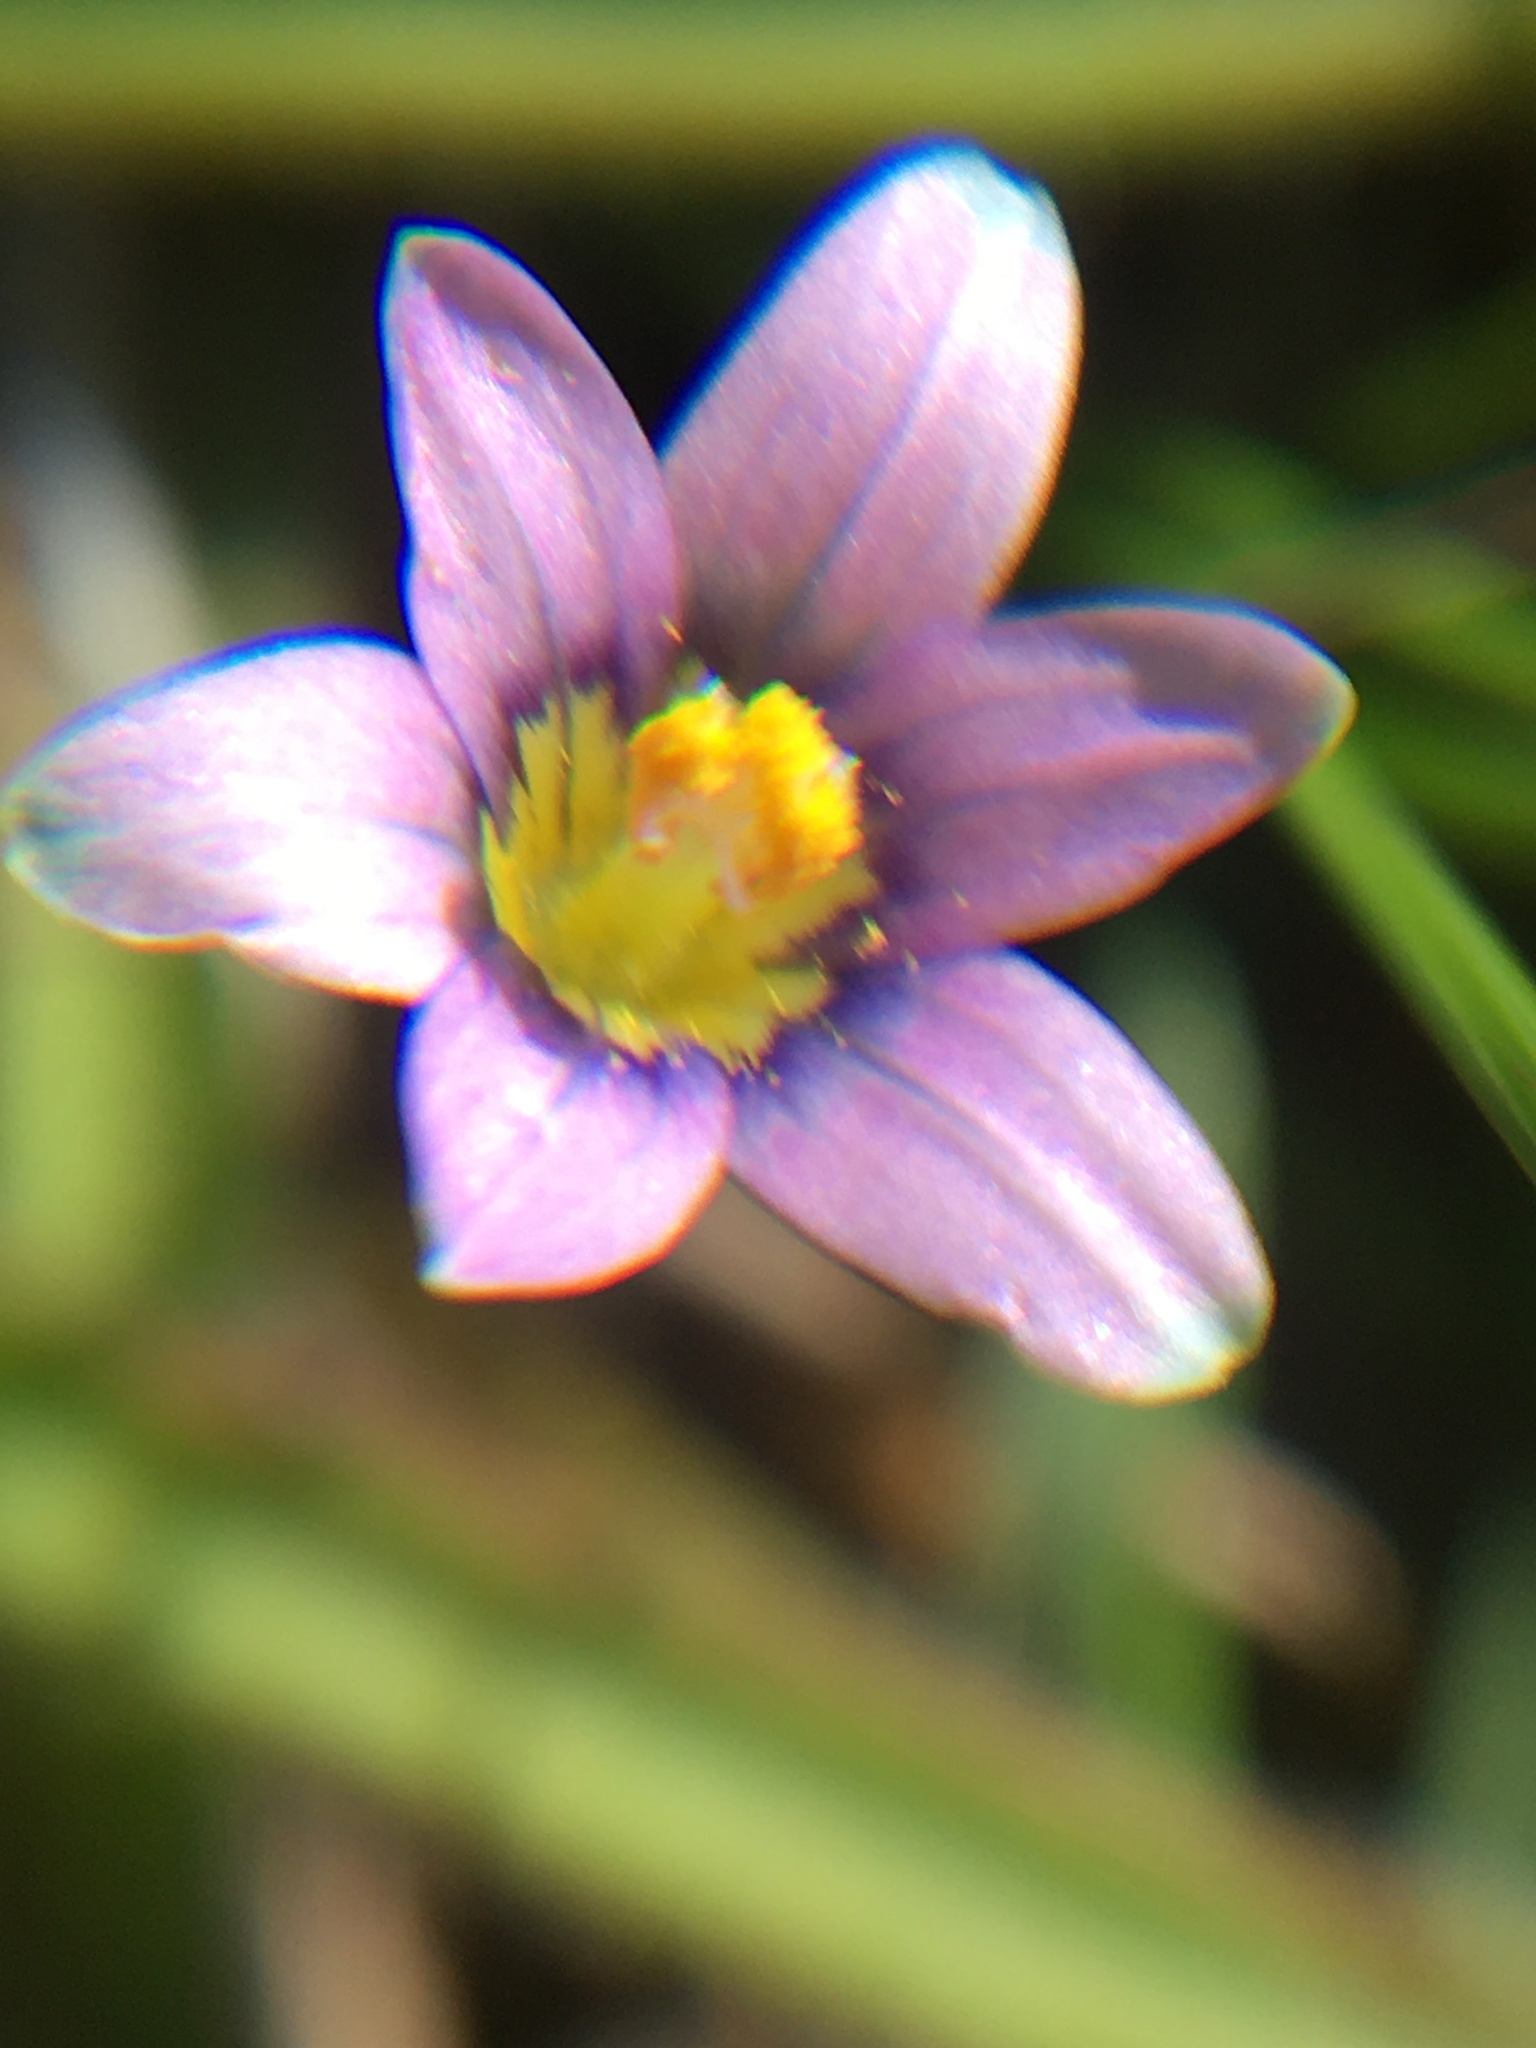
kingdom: Plantae
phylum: Tracheophyta
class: Liliopsida
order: Asparagales
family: Iridaceae
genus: Romulea
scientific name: Romulea minutiflora
